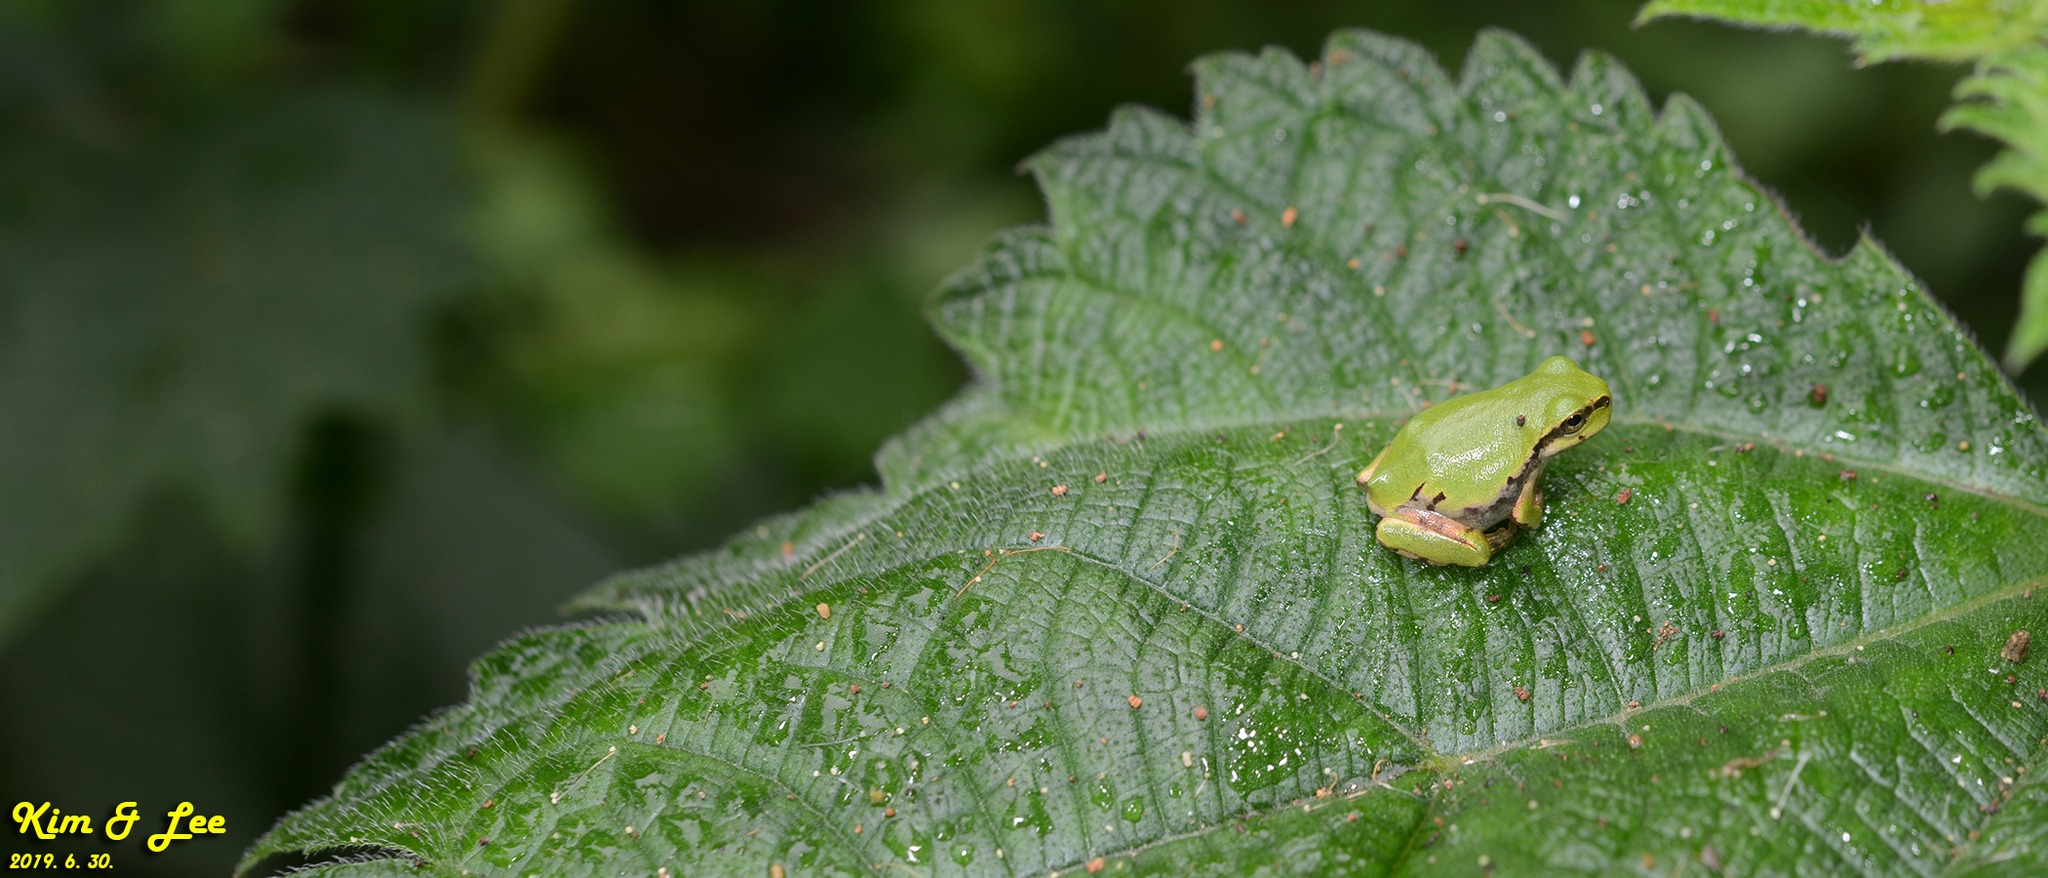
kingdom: Animalia
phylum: Chordata
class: Amphibia
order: Anura
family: Hylidae
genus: Dryophytes
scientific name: Dryophytes japonicus
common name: Japanese treefrog
